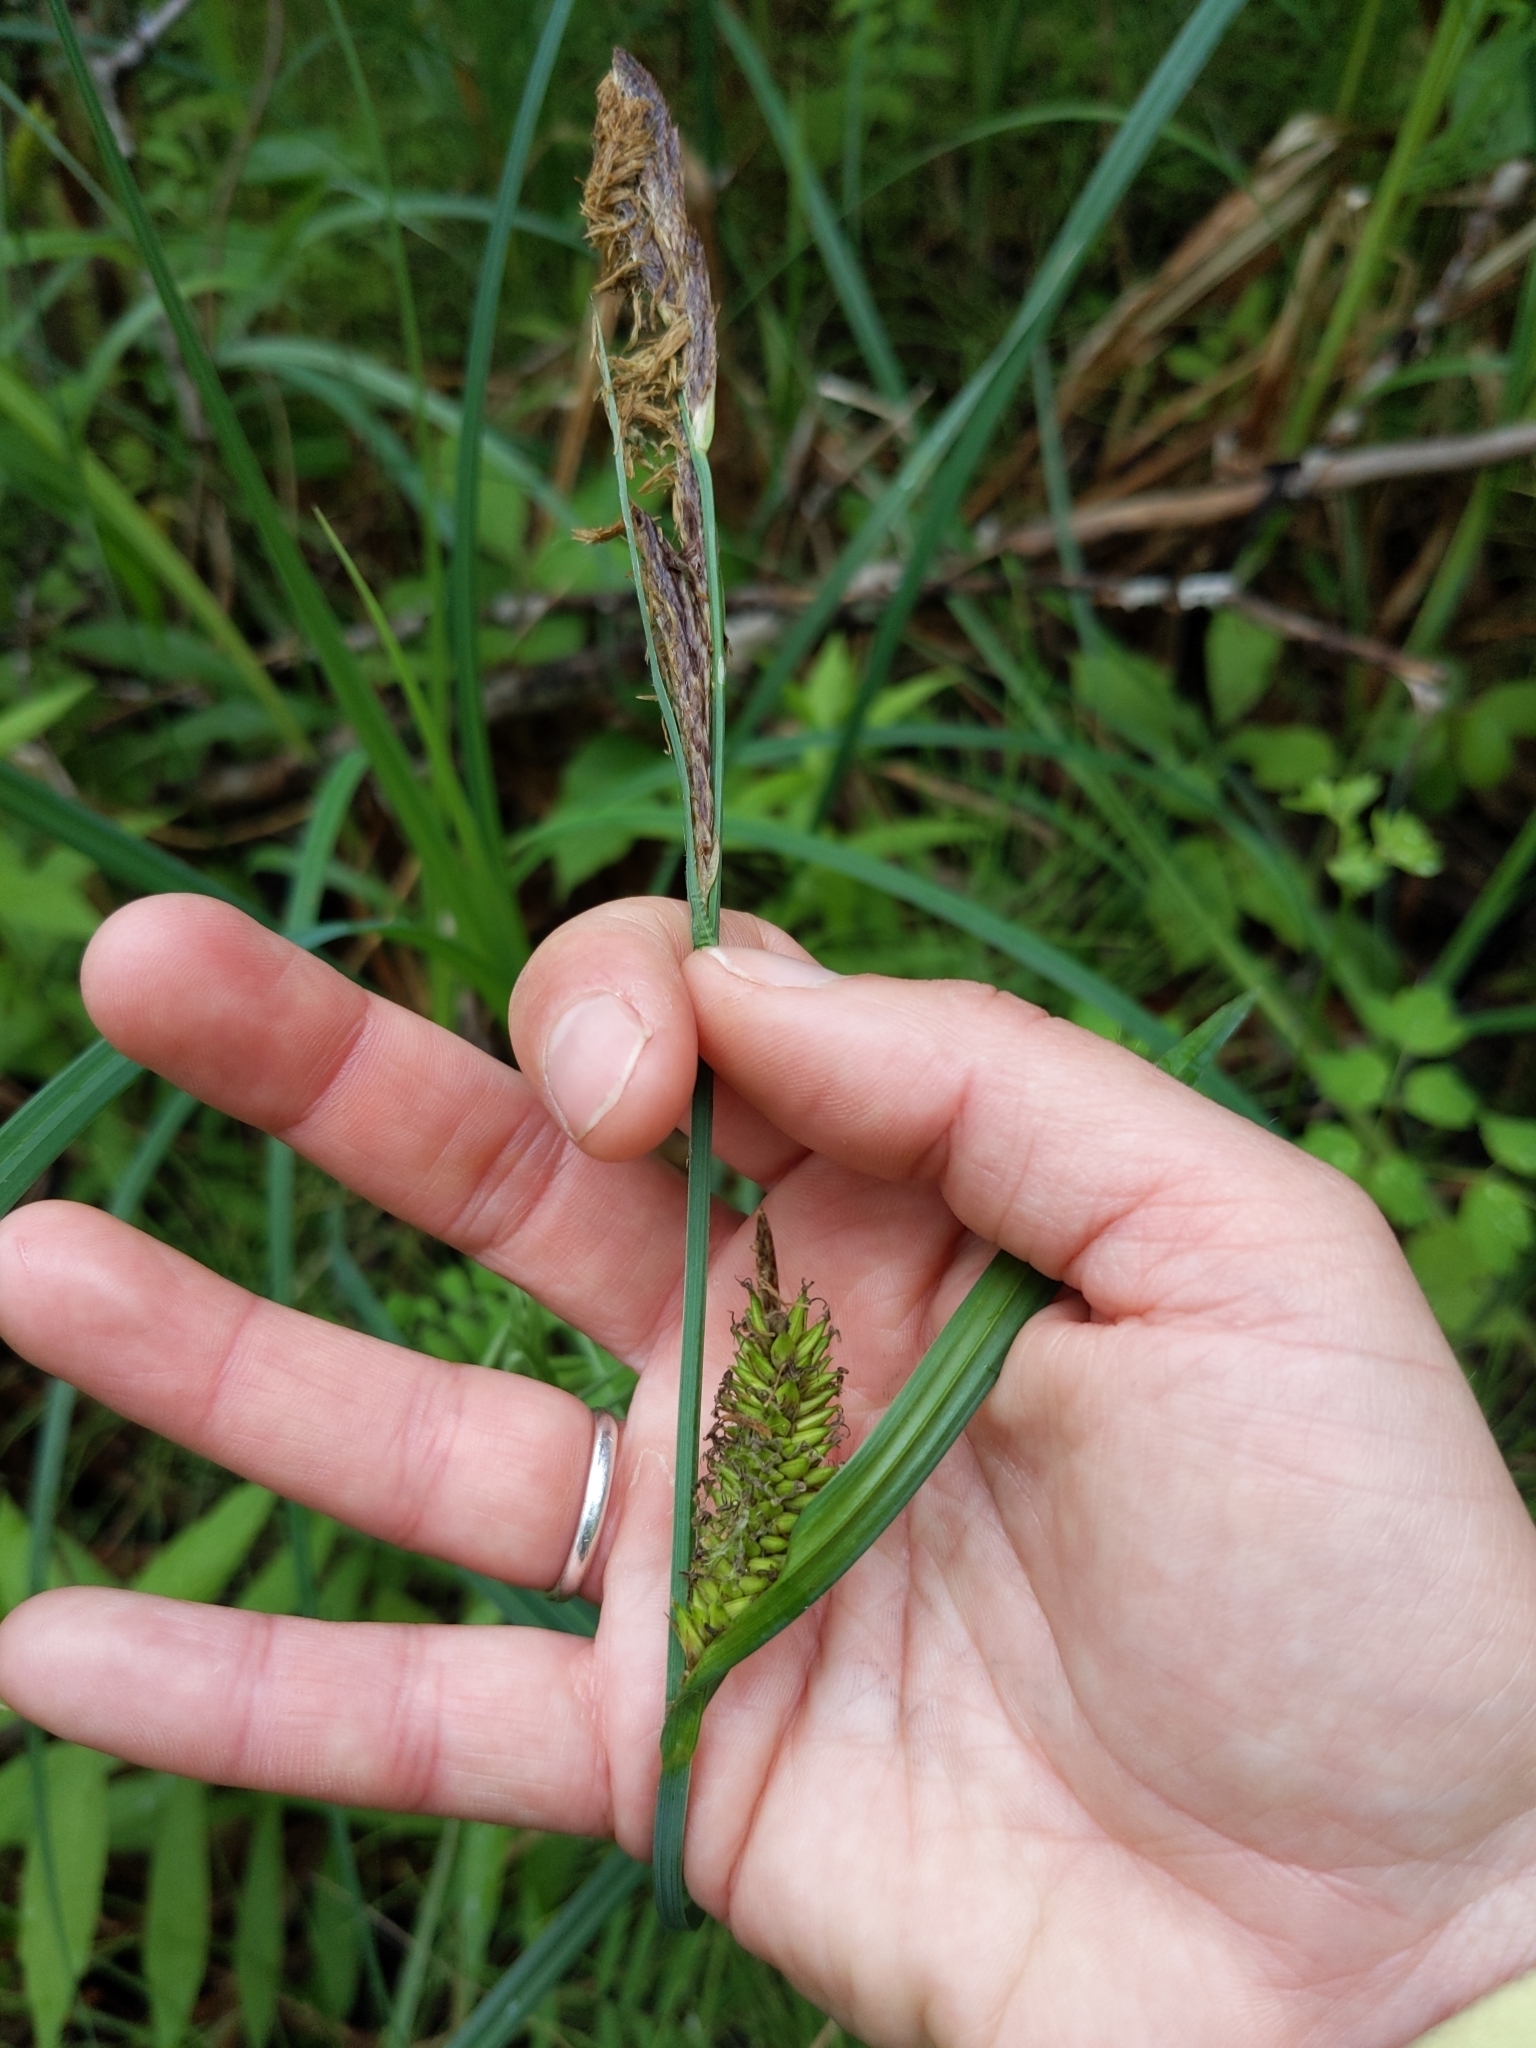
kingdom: Plantae
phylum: Tracheophyta
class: Liliopsida
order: Poales
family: Cyperaceae
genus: Carex
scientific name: Carex lacustris
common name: Common lake sedge
